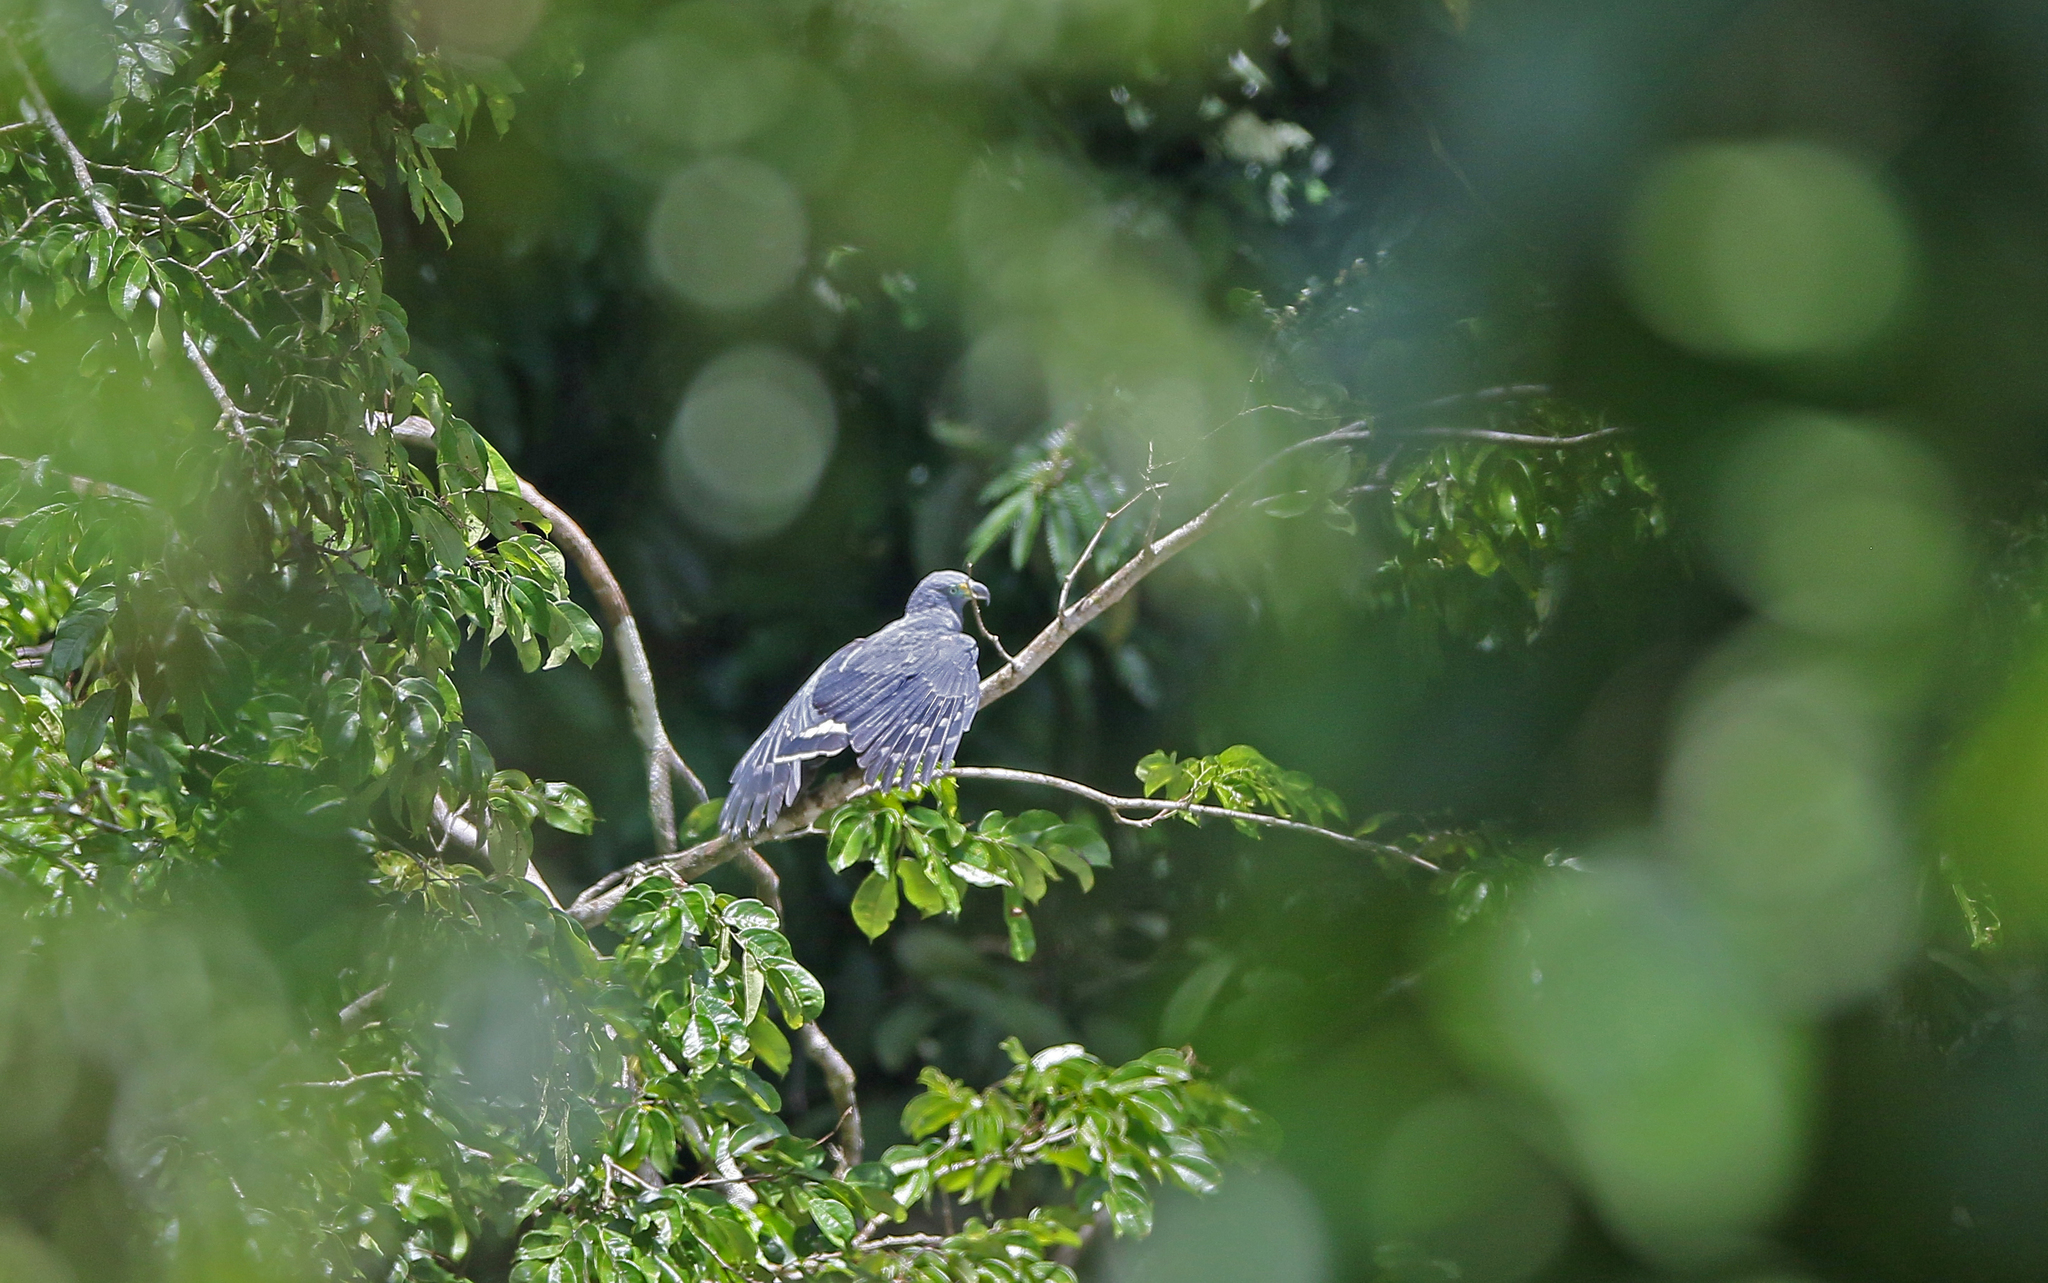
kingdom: Animalia
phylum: Chordata
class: Aves
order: Accipitriformes
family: Accipitridae
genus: Chondrohierax
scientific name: Chondrohierax uncinatus
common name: Hook-billed kite
